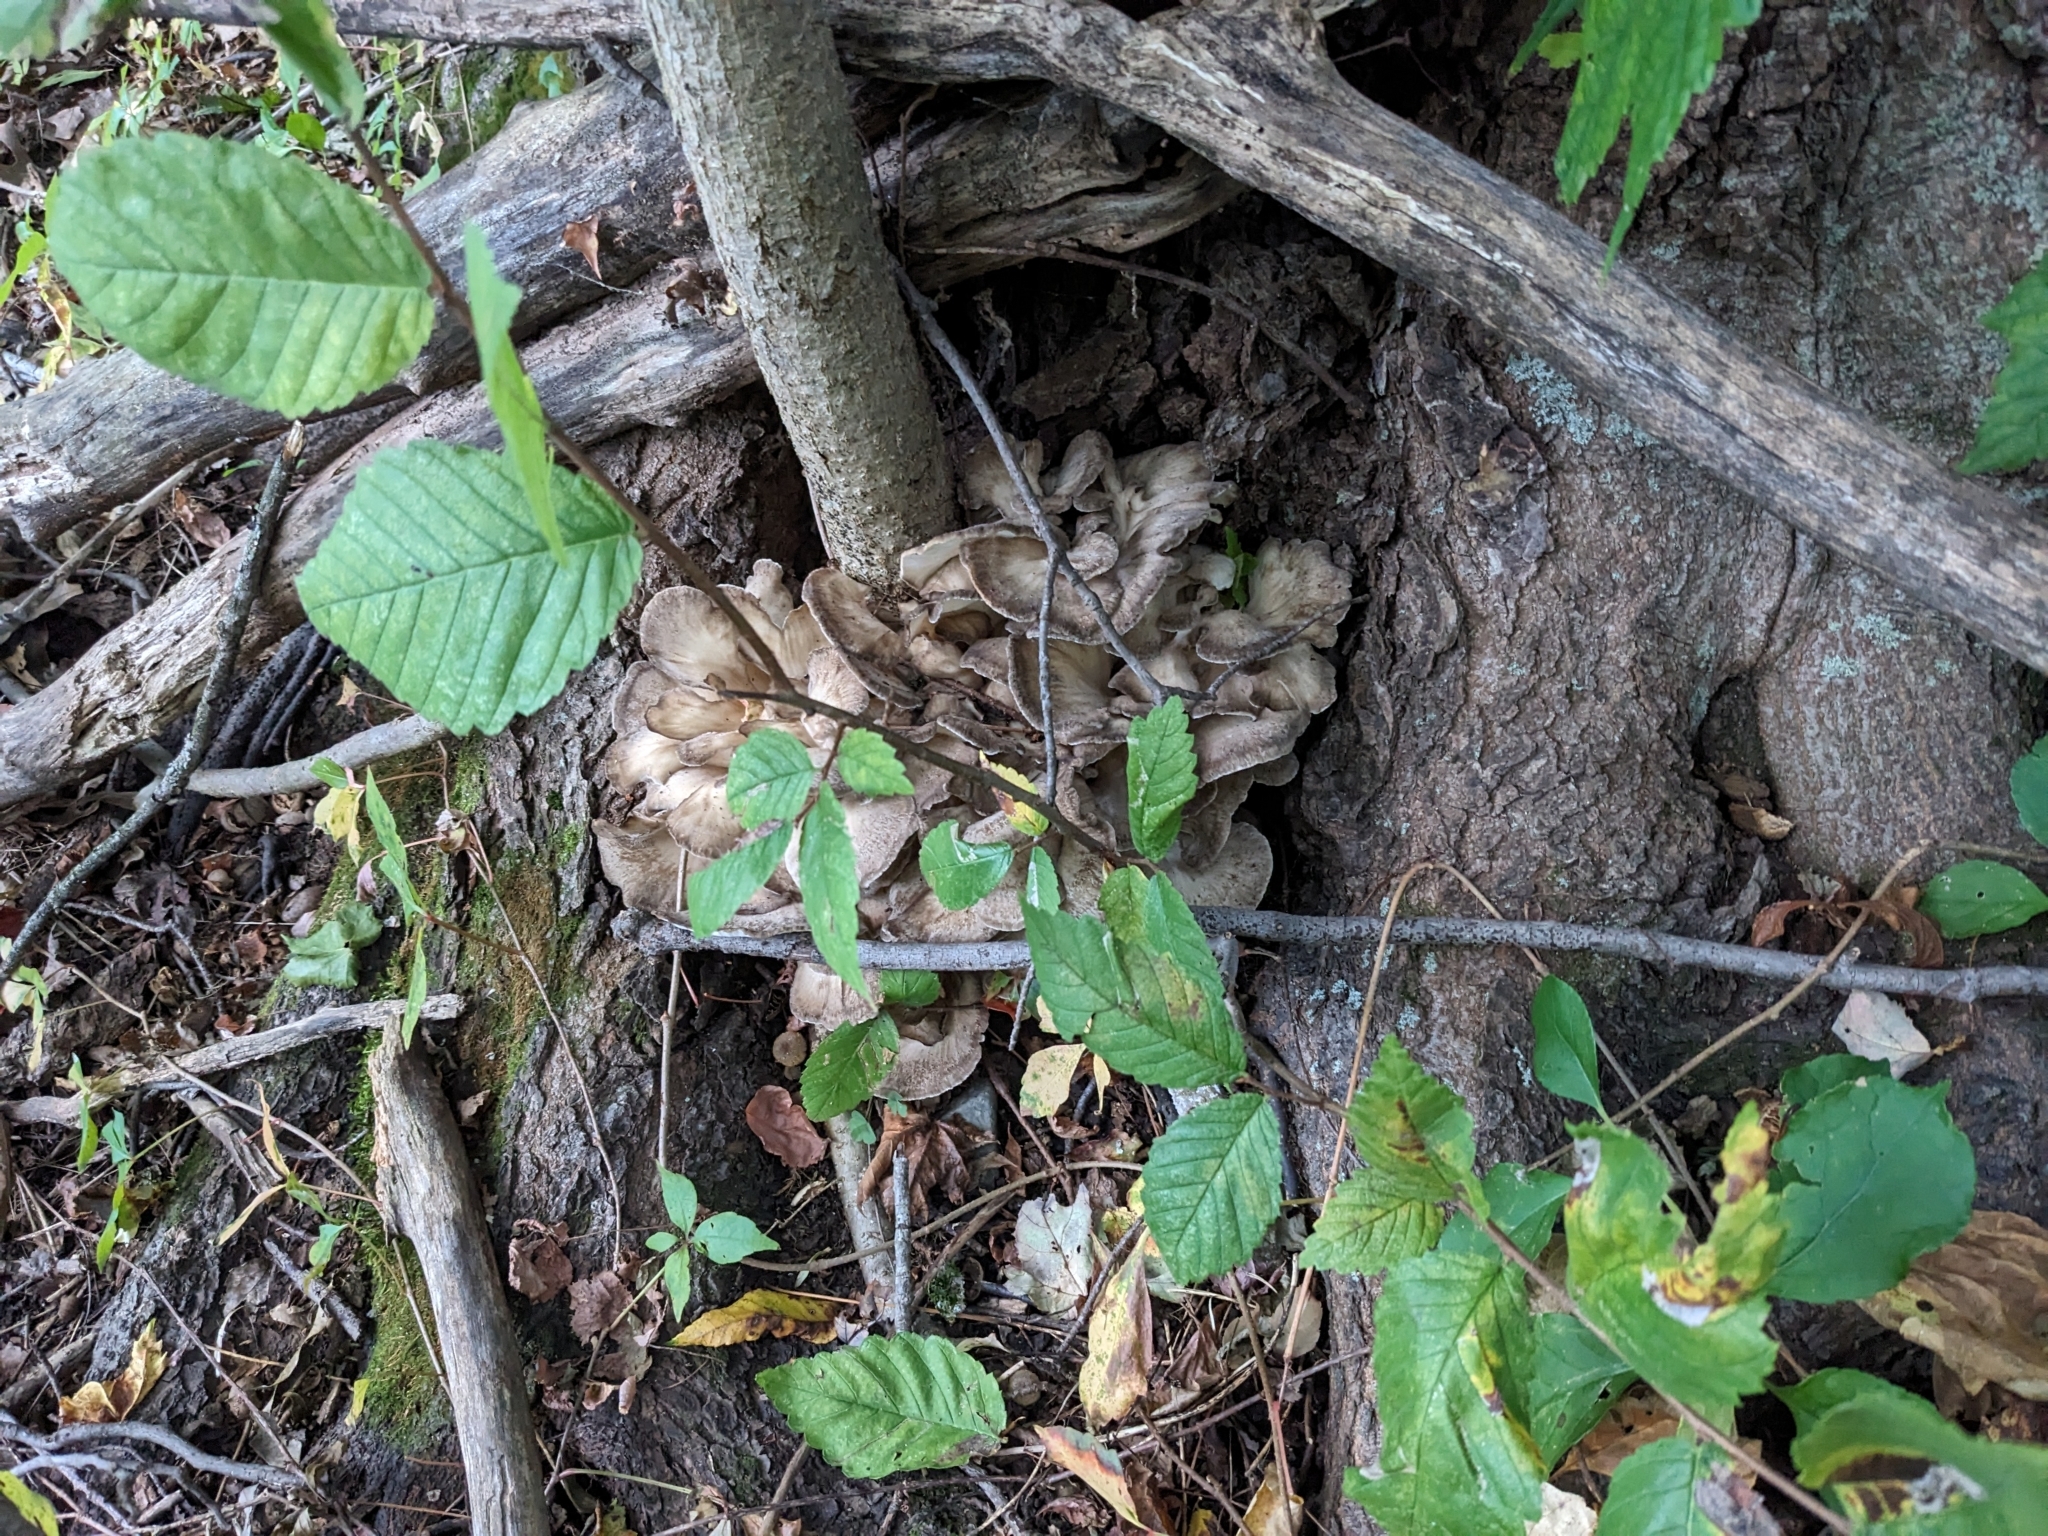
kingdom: Fungi
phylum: Basidiomycota
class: Agaricomycetes
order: Polyporales
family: Grifolaceae
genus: Grifola
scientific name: Grifola frondosa
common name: Hen of the woods
